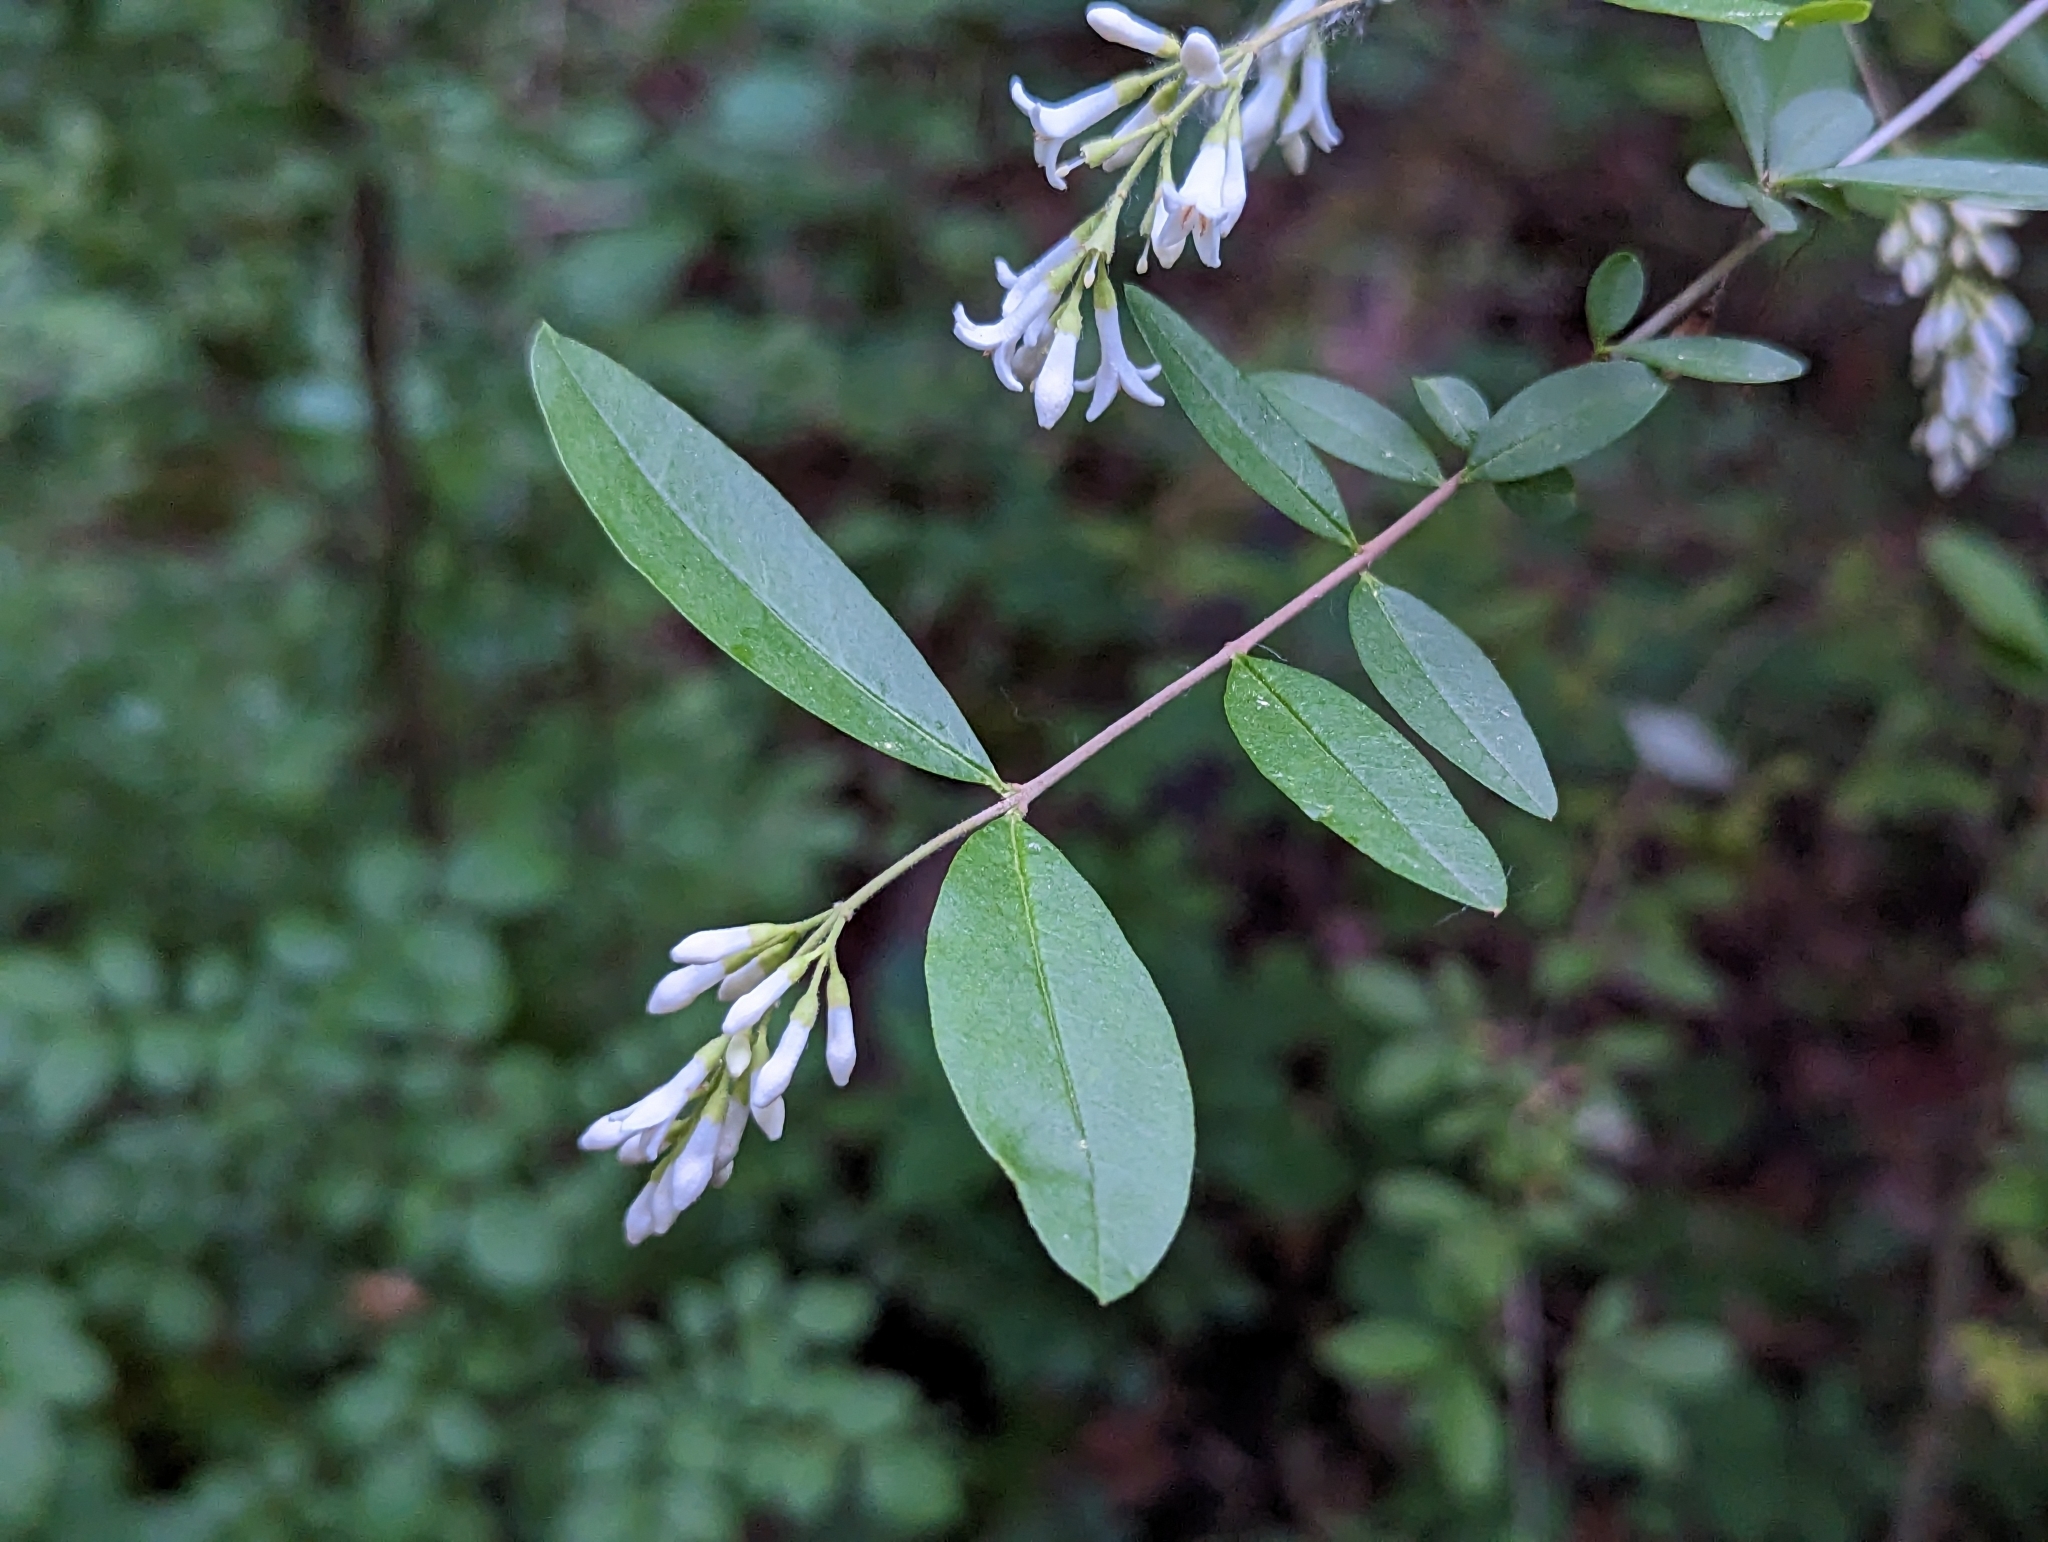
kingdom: Plantae
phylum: Tracheophyta
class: Magnoliopsida
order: Lamiales
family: Oleaceae
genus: Ligustrum
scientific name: Ligustrum obtusifolium
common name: Border privet
